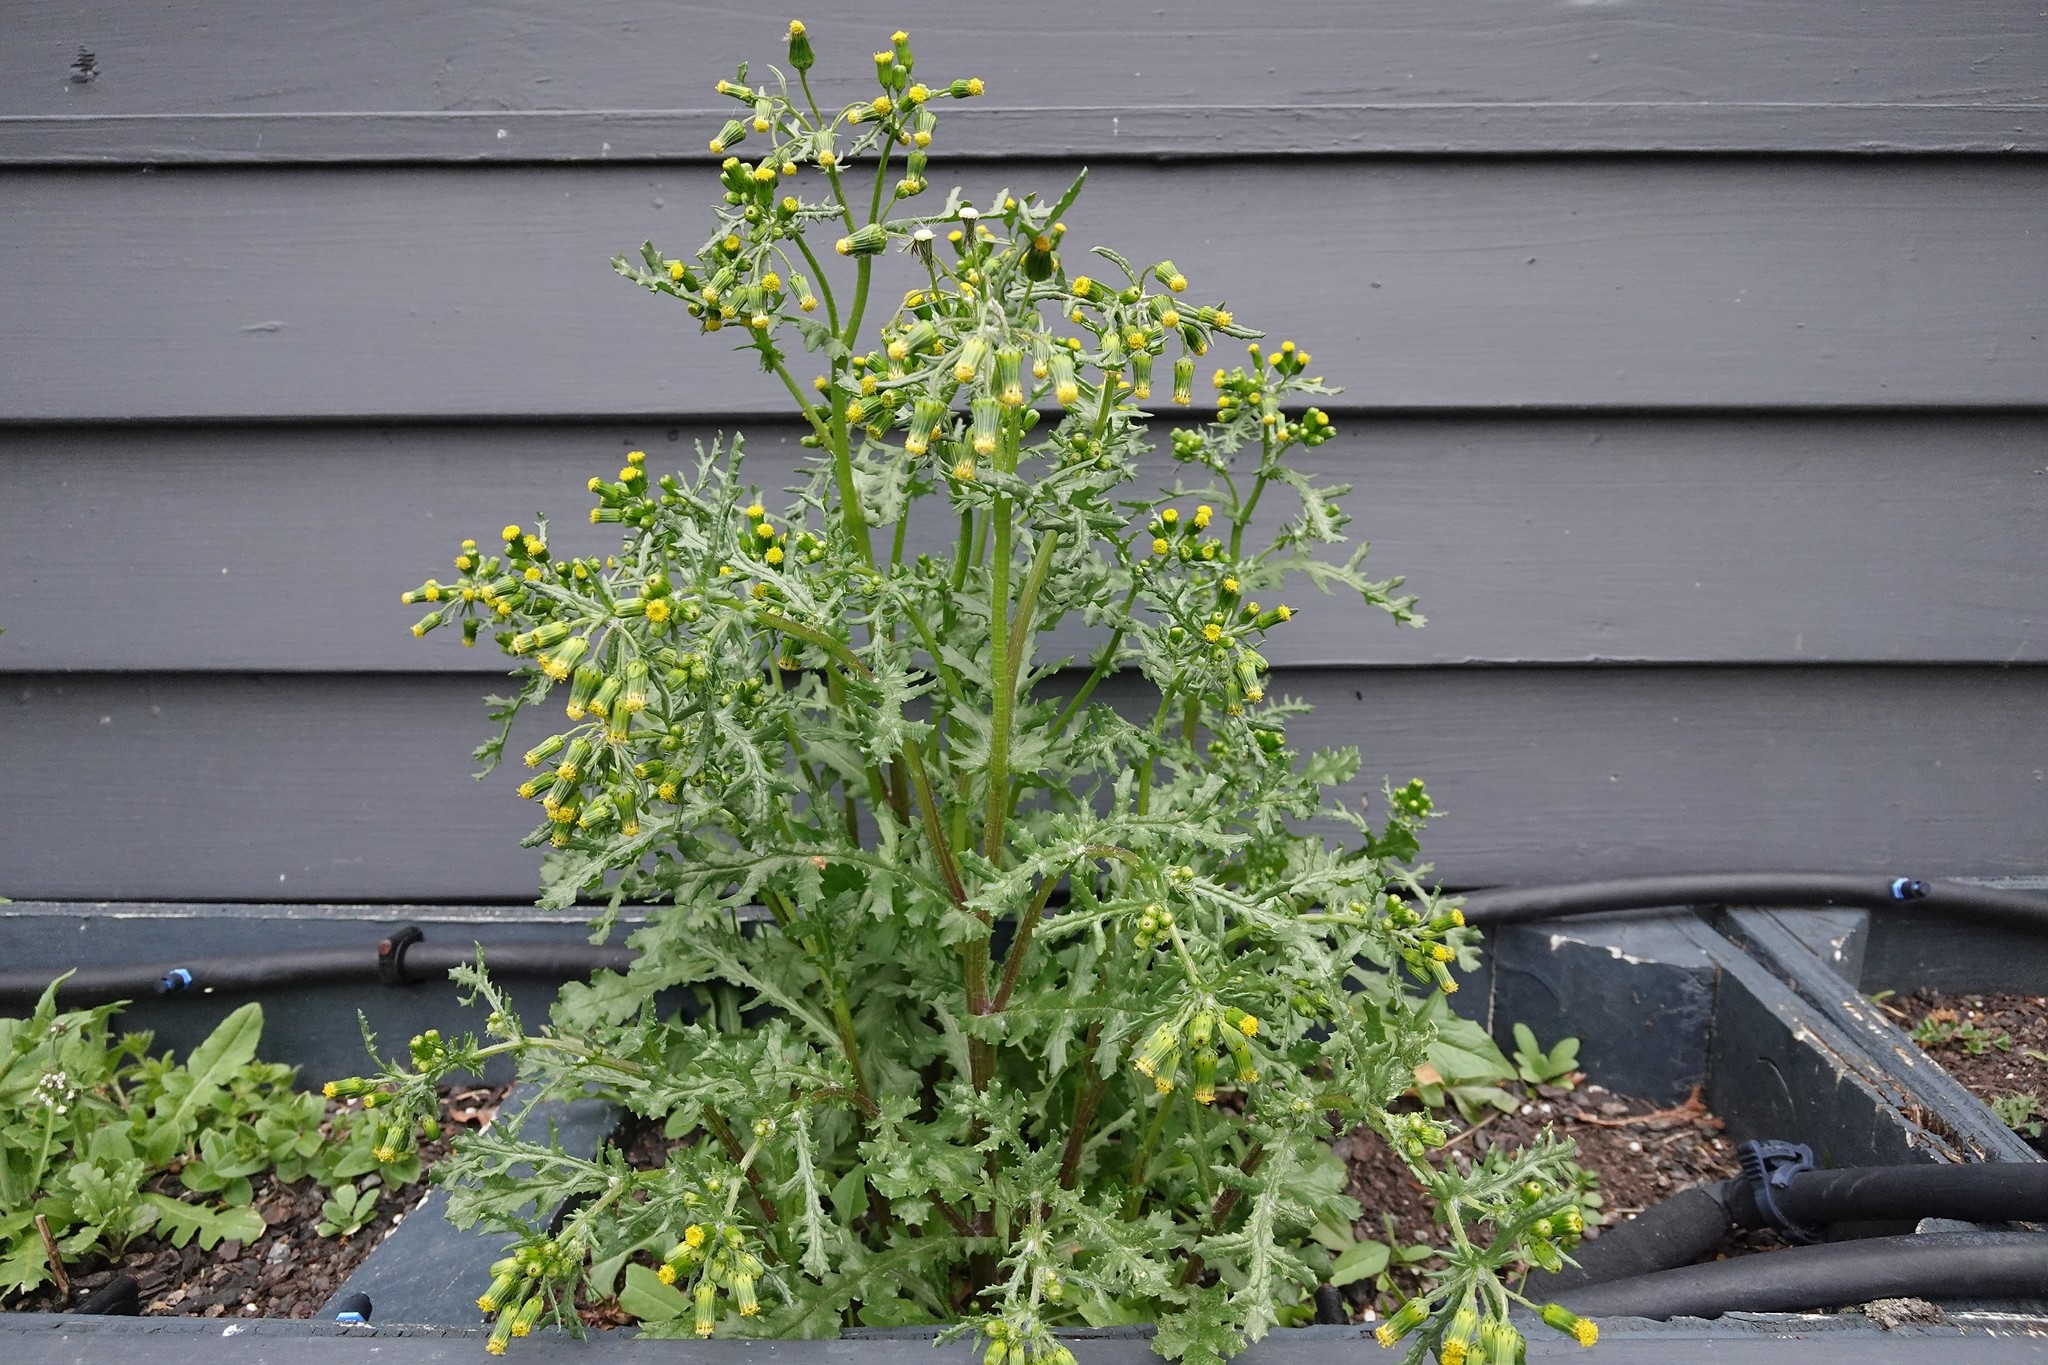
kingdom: Plantae
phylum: Tracheophyta
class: Magnoliopsida
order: Asterales
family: Asteraceae
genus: Senecio
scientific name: Senecio vulgaris
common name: Old-man-in-the-spring
